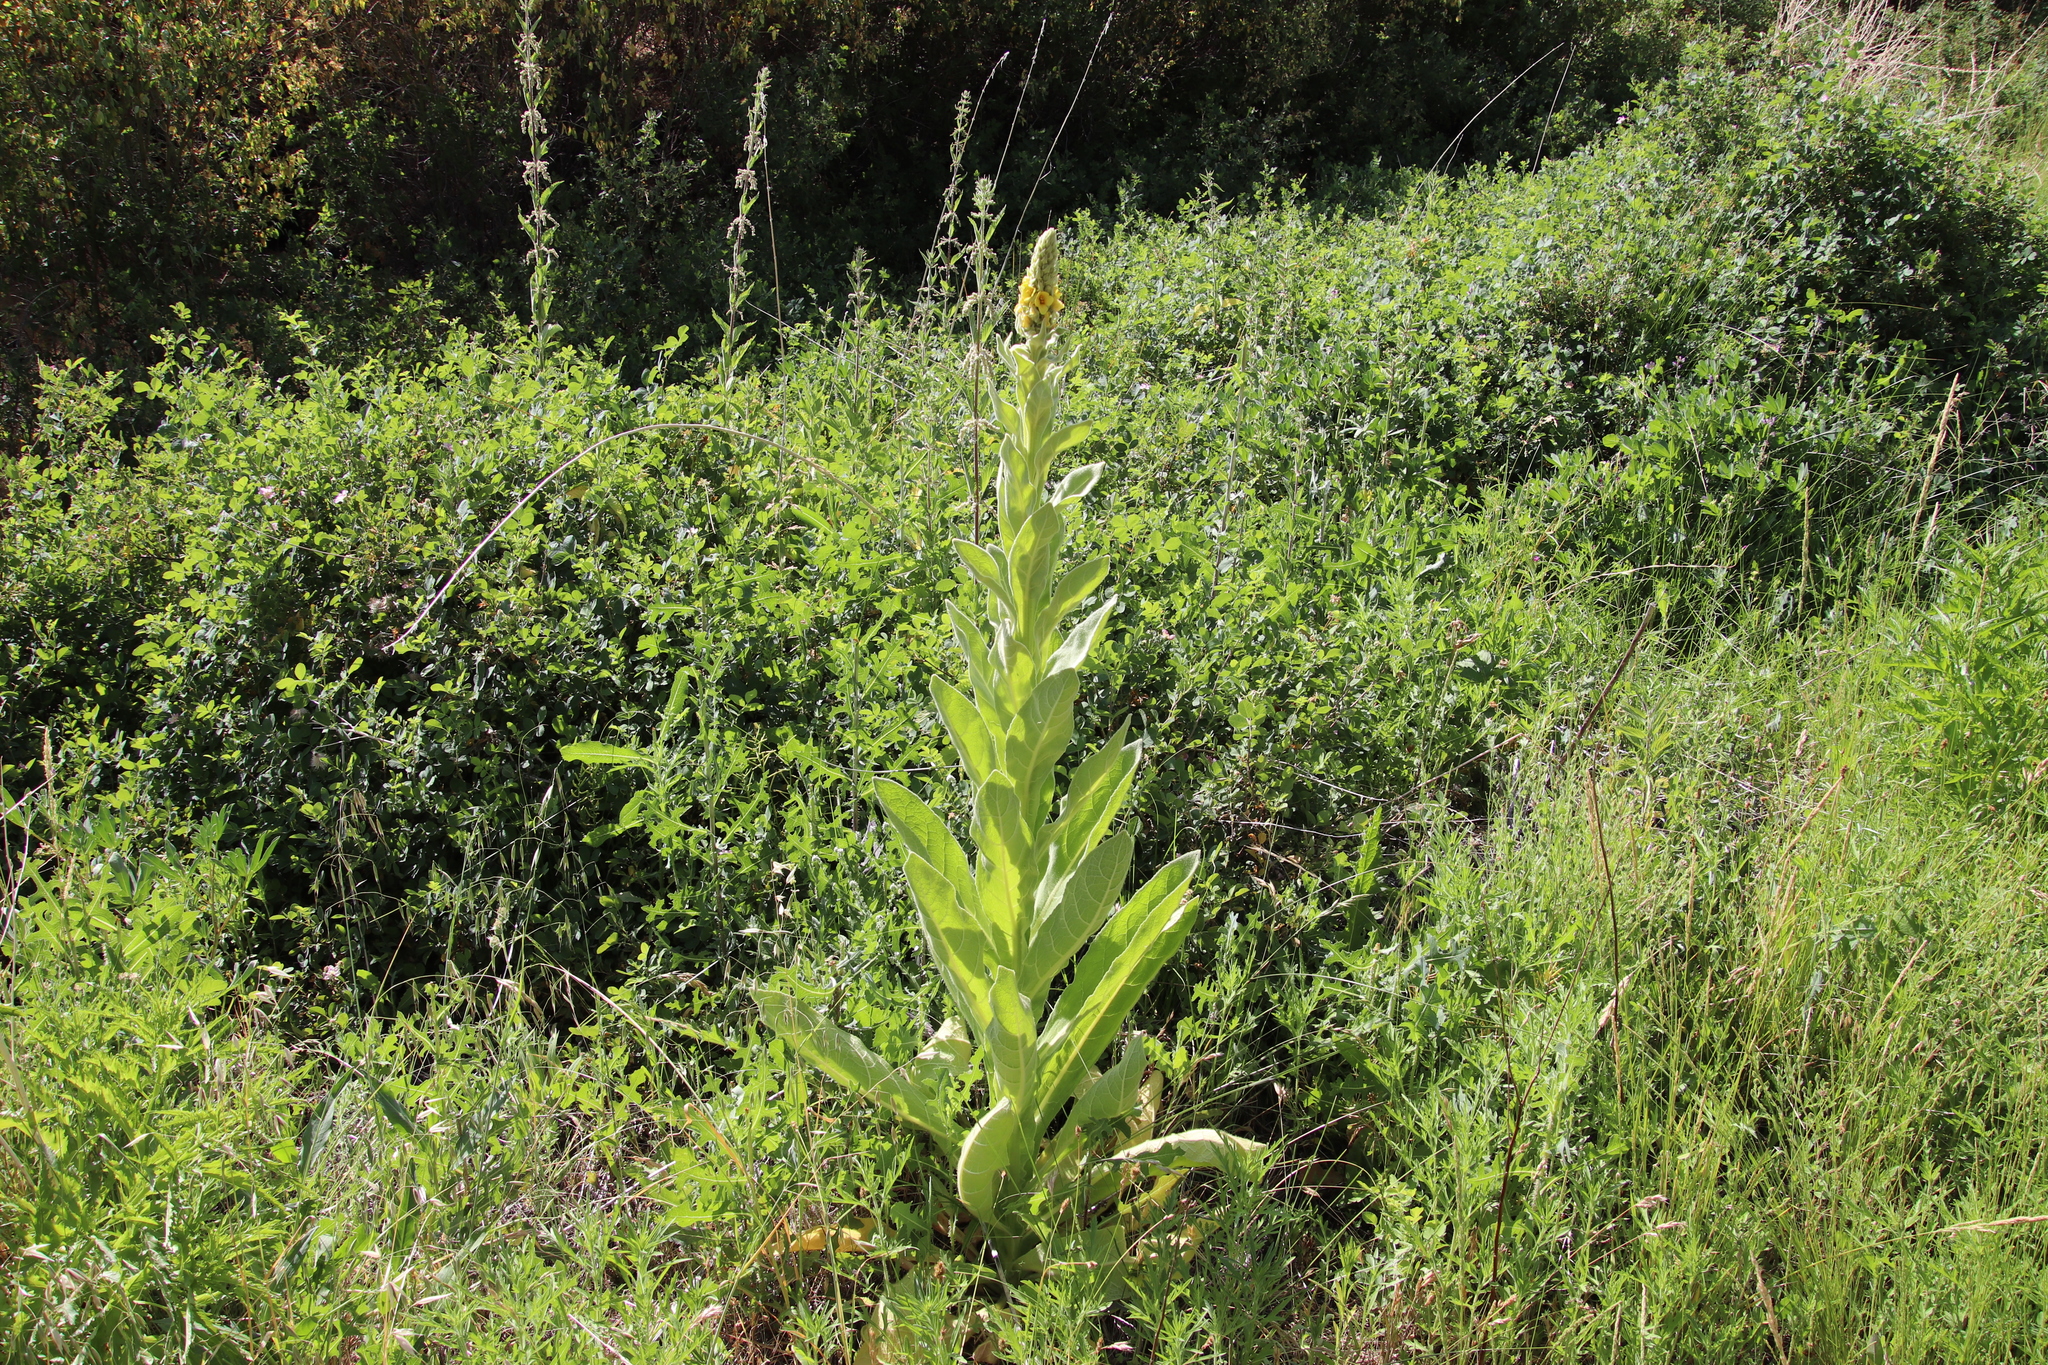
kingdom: Plantae
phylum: Tracheophyta
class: Magnoliopsida
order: Lamiales
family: Scrophulariaceae
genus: Verbascum
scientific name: Verbascum thapsus
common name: Common mullein
